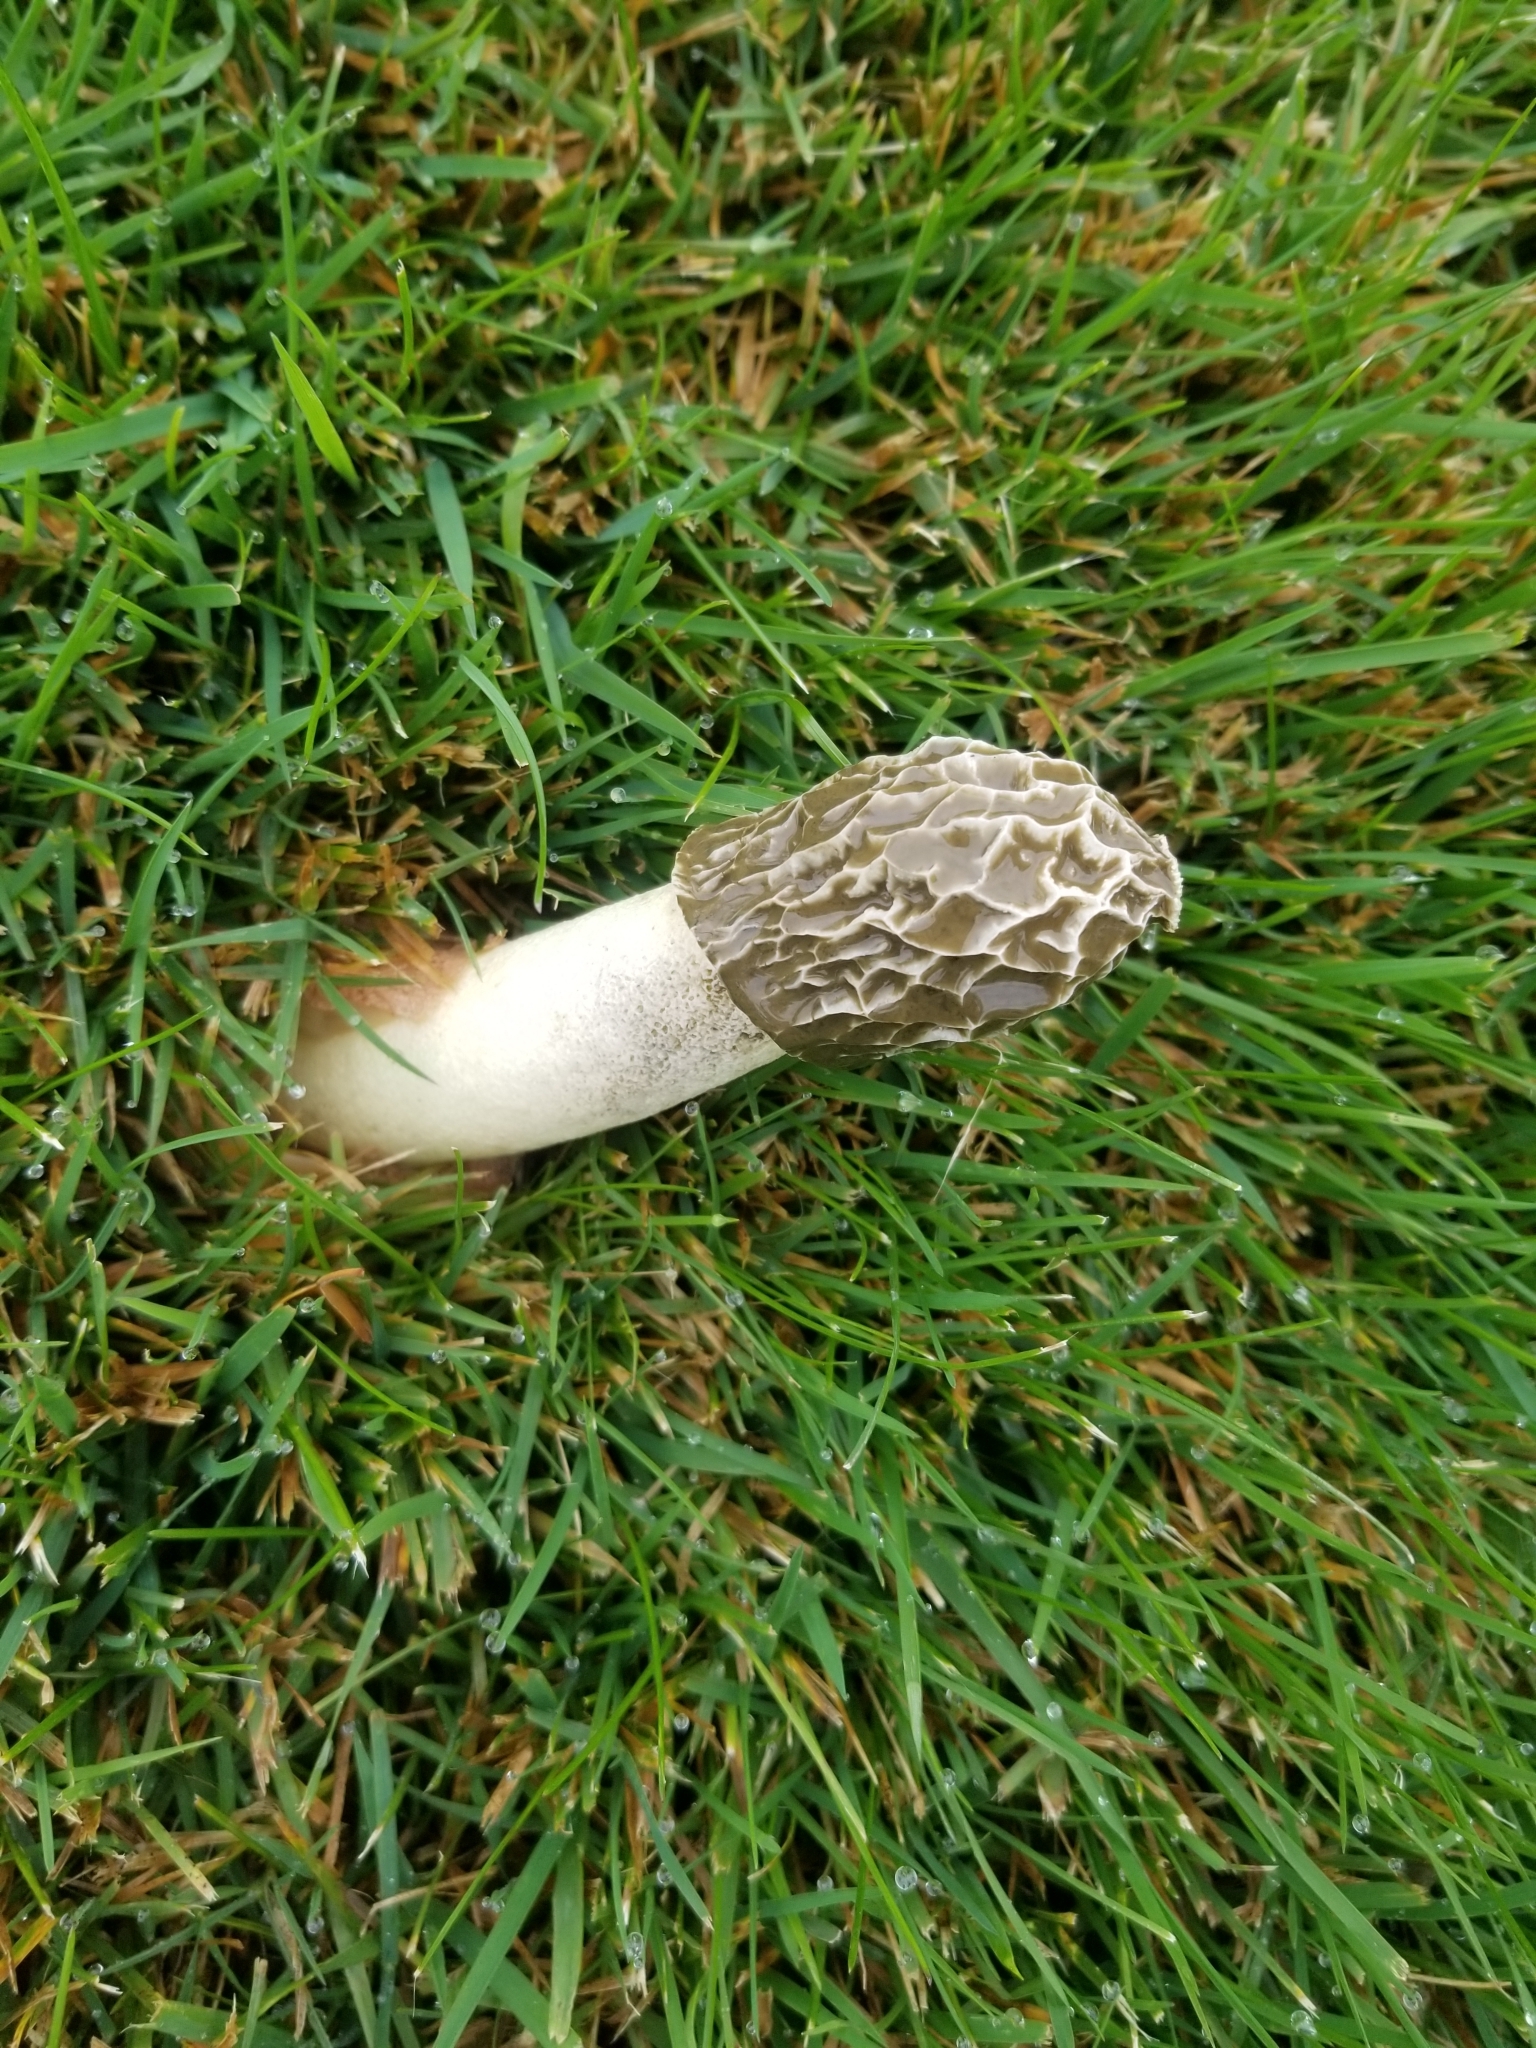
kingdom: Fungi
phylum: Basidiomycota
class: Agaricomycetes
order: Phallales
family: Phallaceae
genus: Phallus
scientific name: Phallus hadriani
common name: Sand stinkhorn
